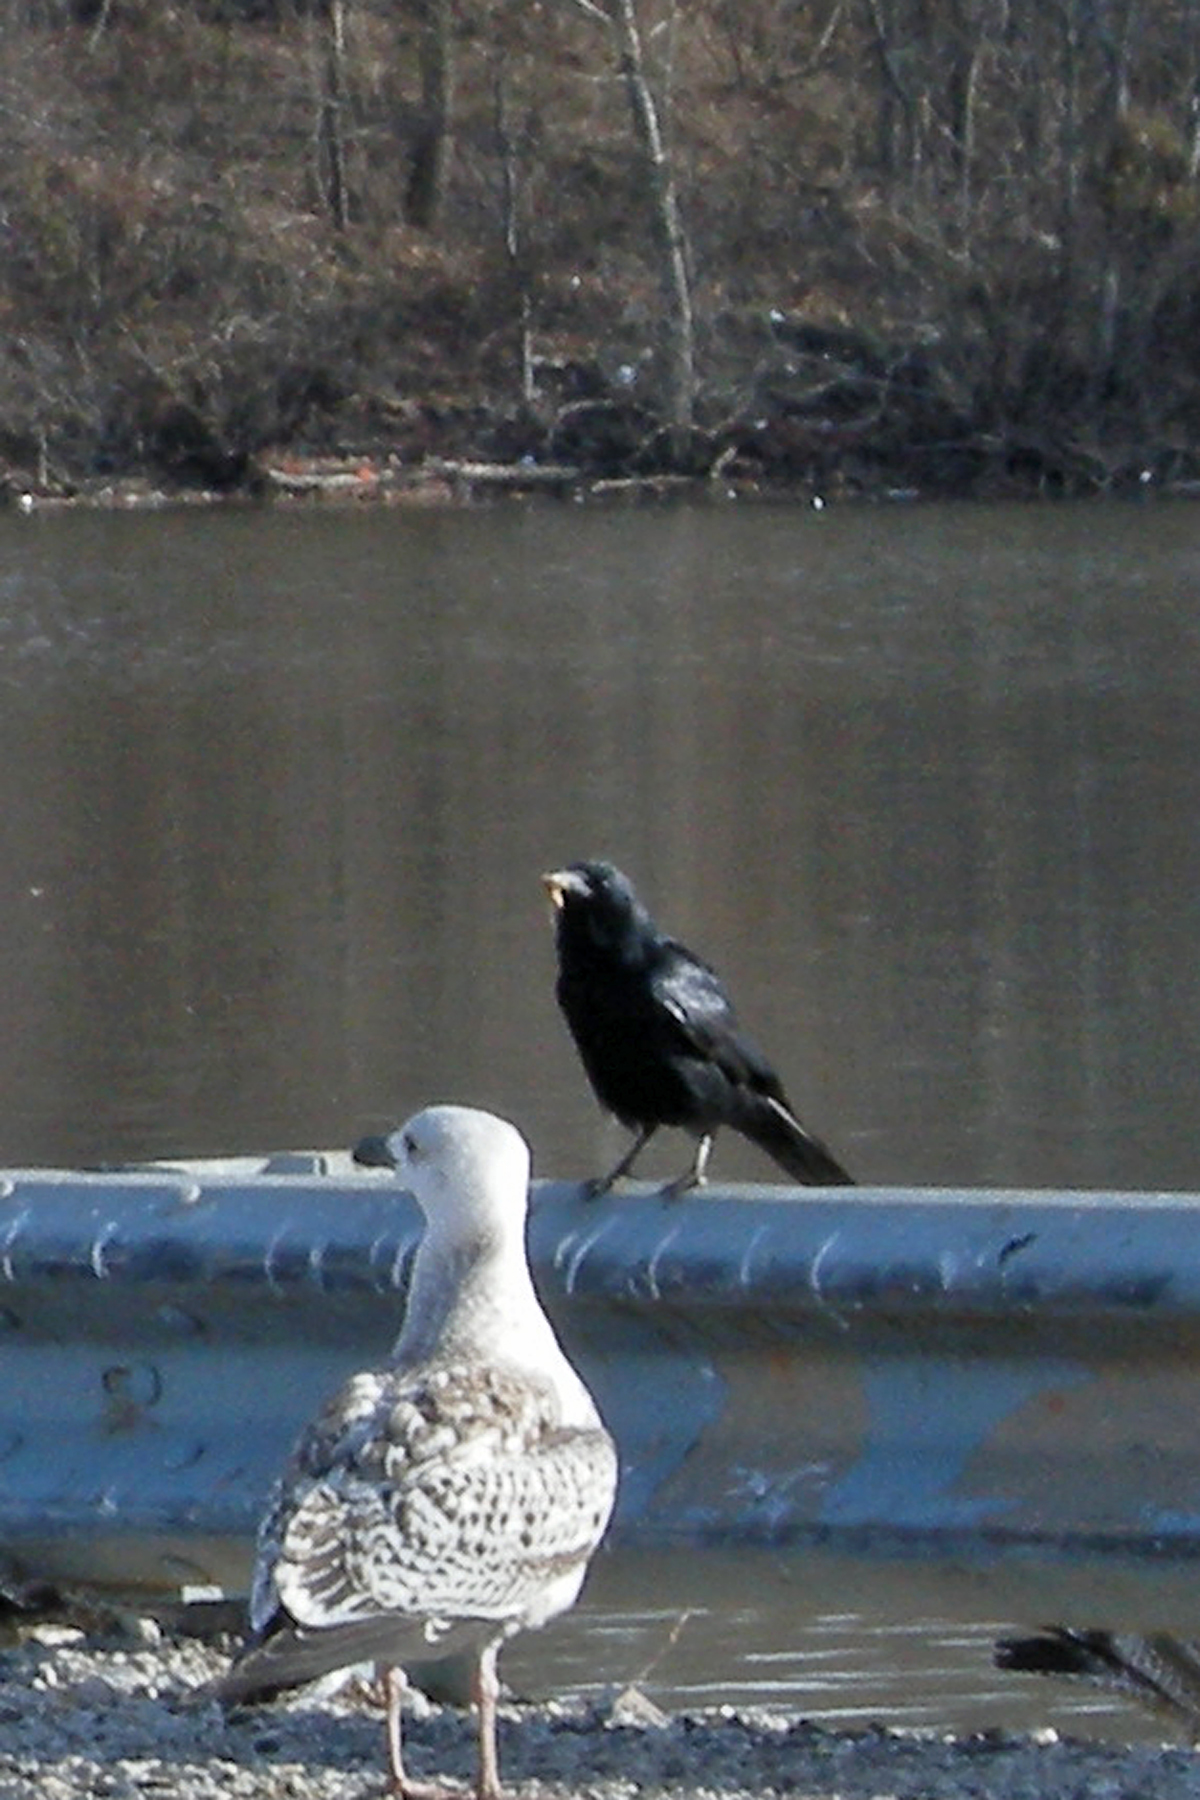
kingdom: Animalia
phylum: Chordata
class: Aves
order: Passeriformes
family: Corvidae
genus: Corvus
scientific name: Corvus ossifragus
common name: Fish crow
